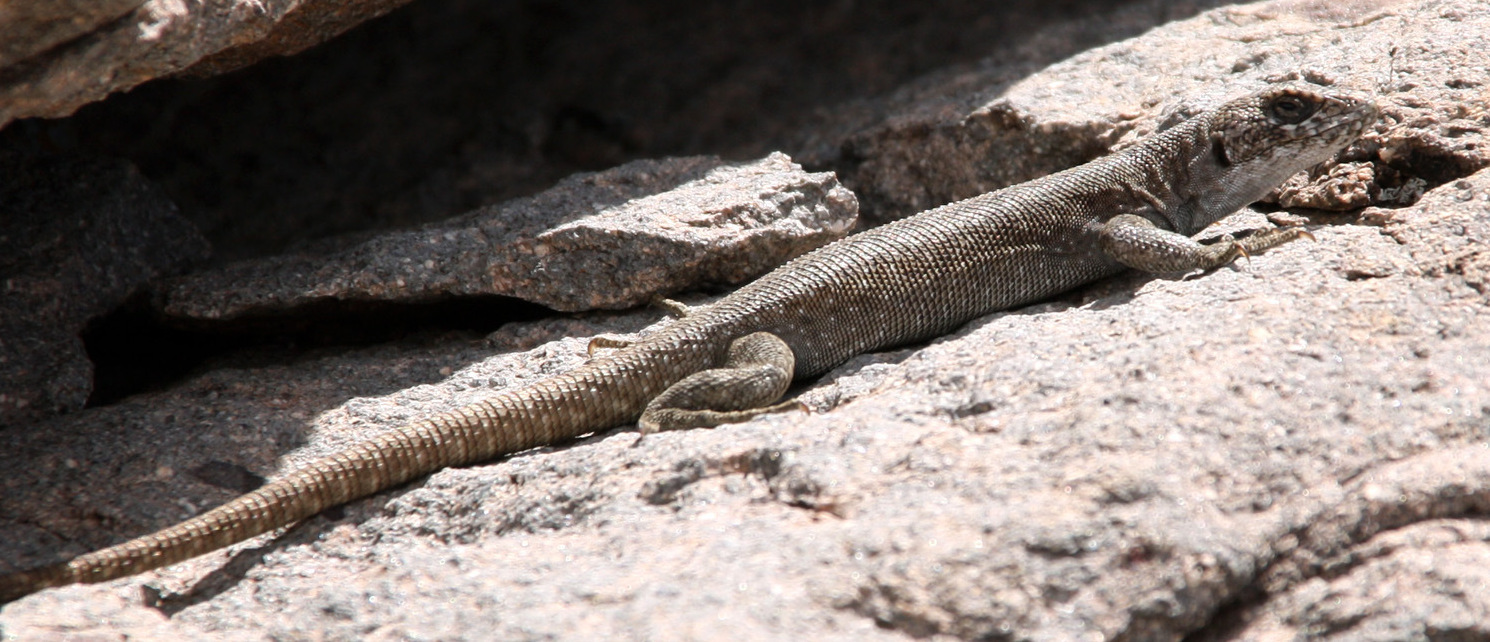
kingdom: Animalia
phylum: Chordata
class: Squamata
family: Liolaemidae
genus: Liolaemus
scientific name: Liolaemus austromendocinus
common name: Austromendocino tree iguana
